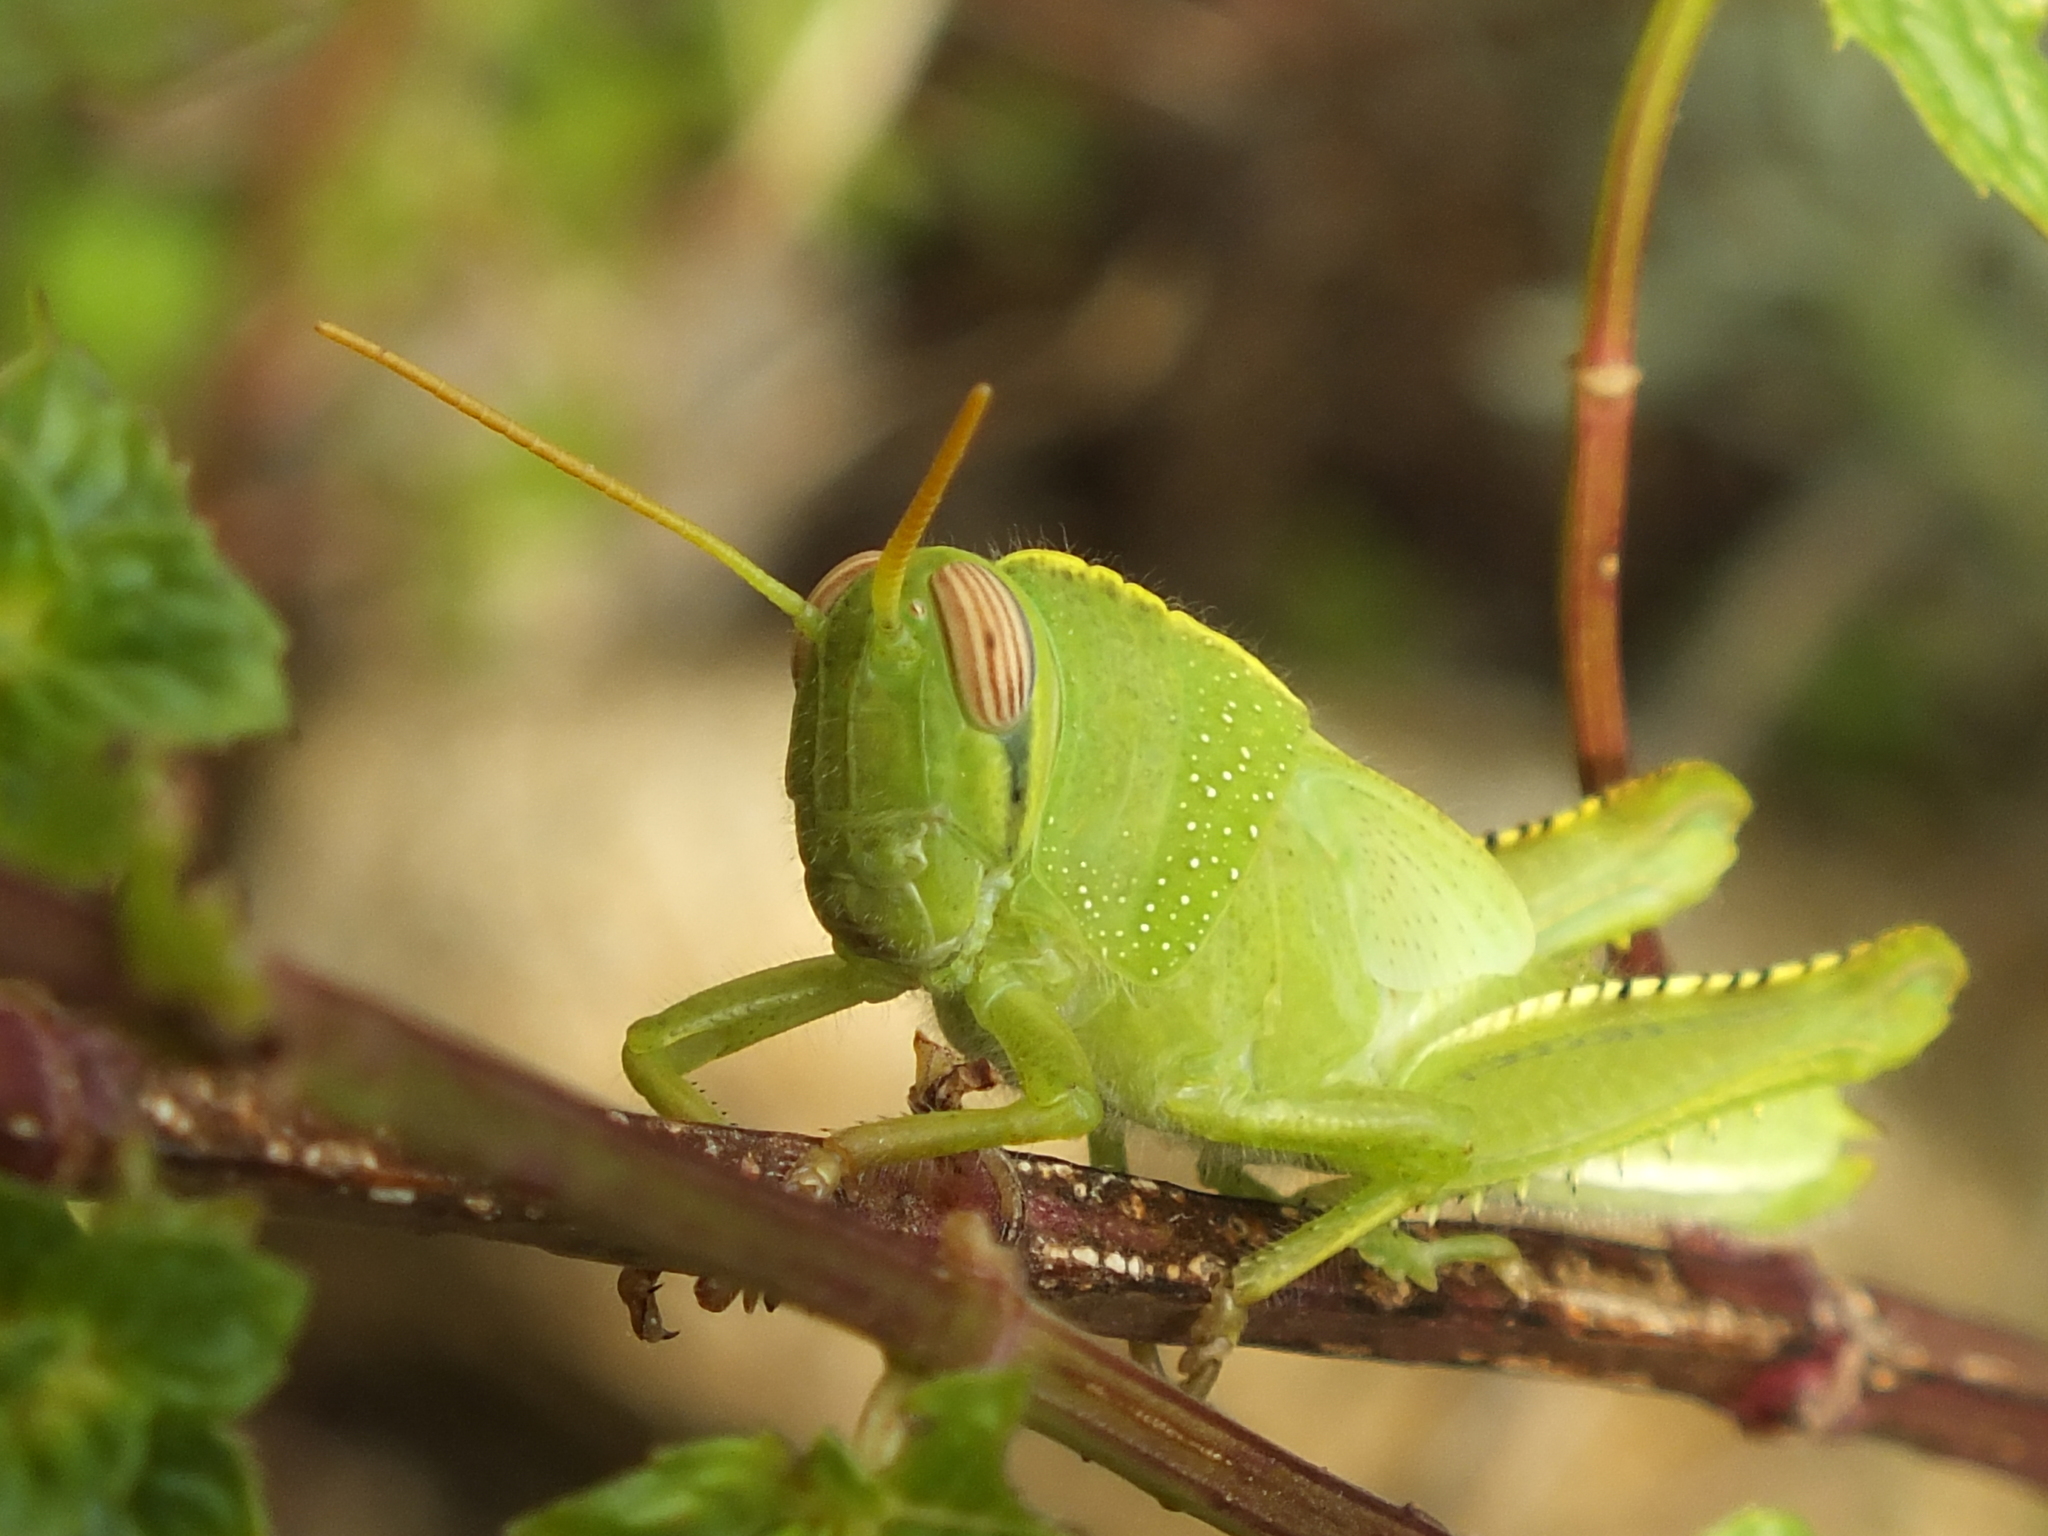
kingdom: Animalia
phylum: Arthropoda
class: Insecta
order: Orthoptera
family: Acrididae
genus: Anacridium
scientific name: Anacridium aegyptium
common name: Egyptian grasshopper
